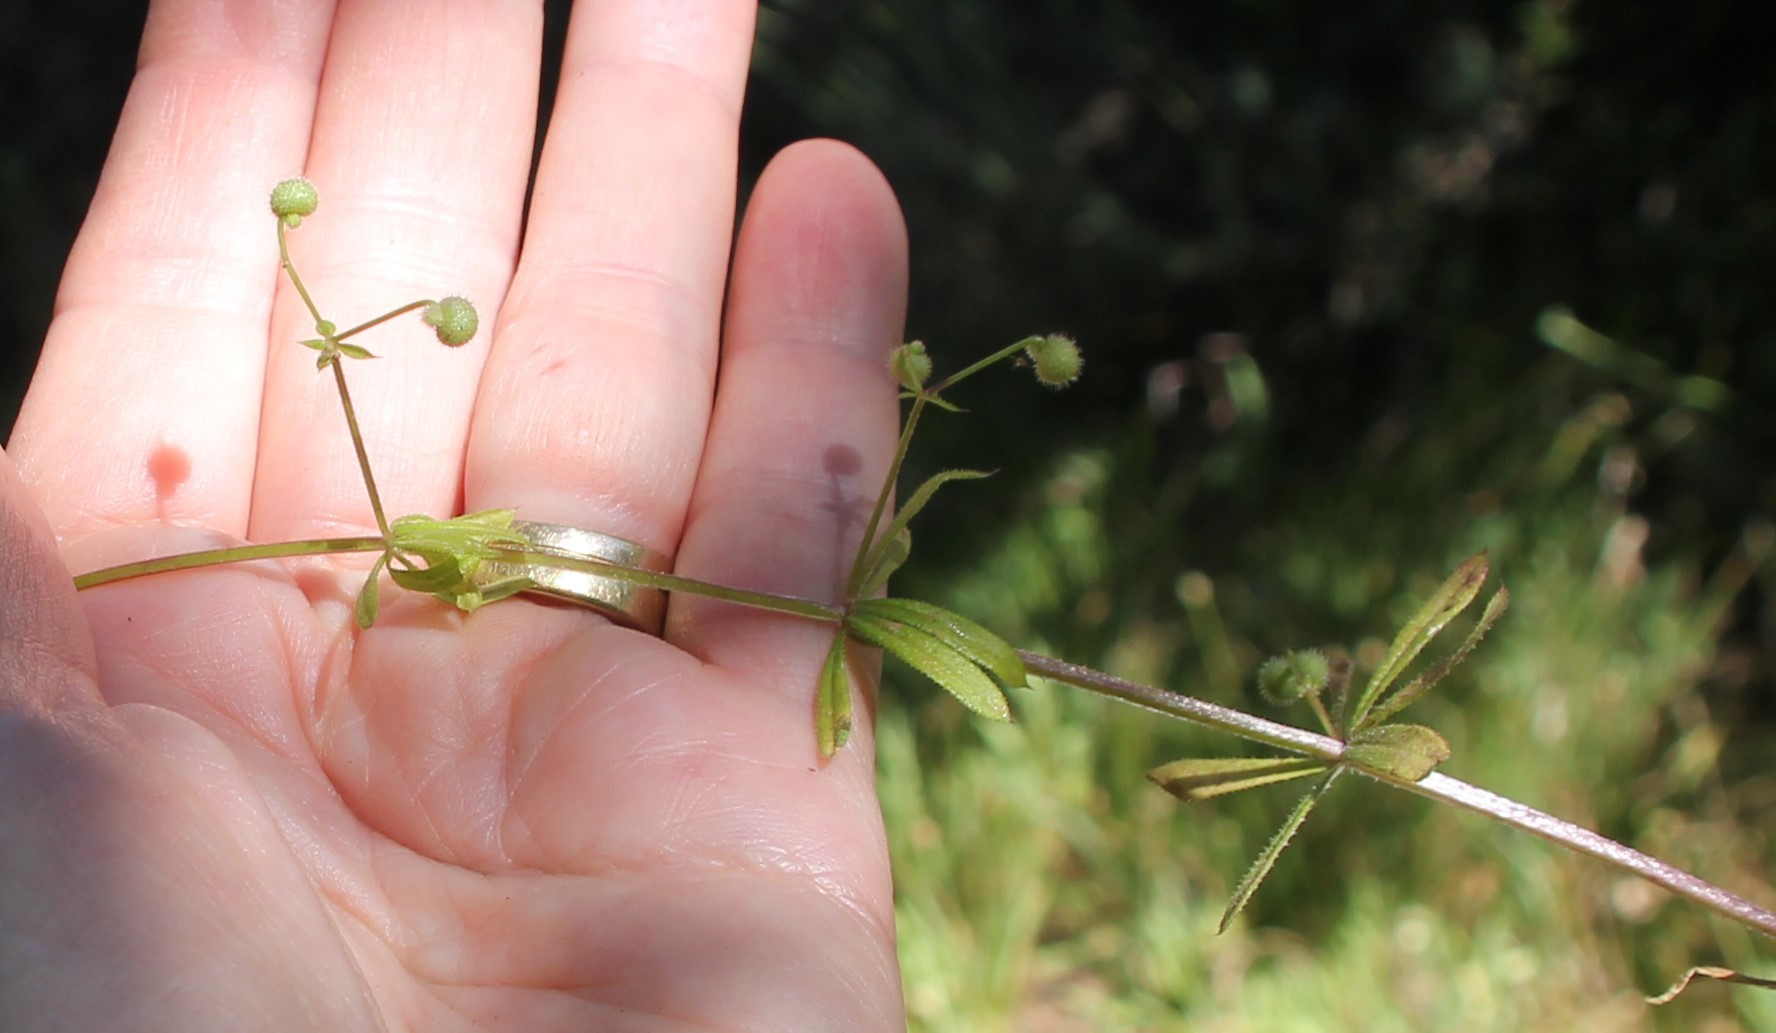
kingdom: Plantae
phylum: Tracheophyta
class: Magnoliopsida
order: Gentianales
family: Rubiaceae
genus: Galium
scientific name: Galium aparine
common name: Cleavers
